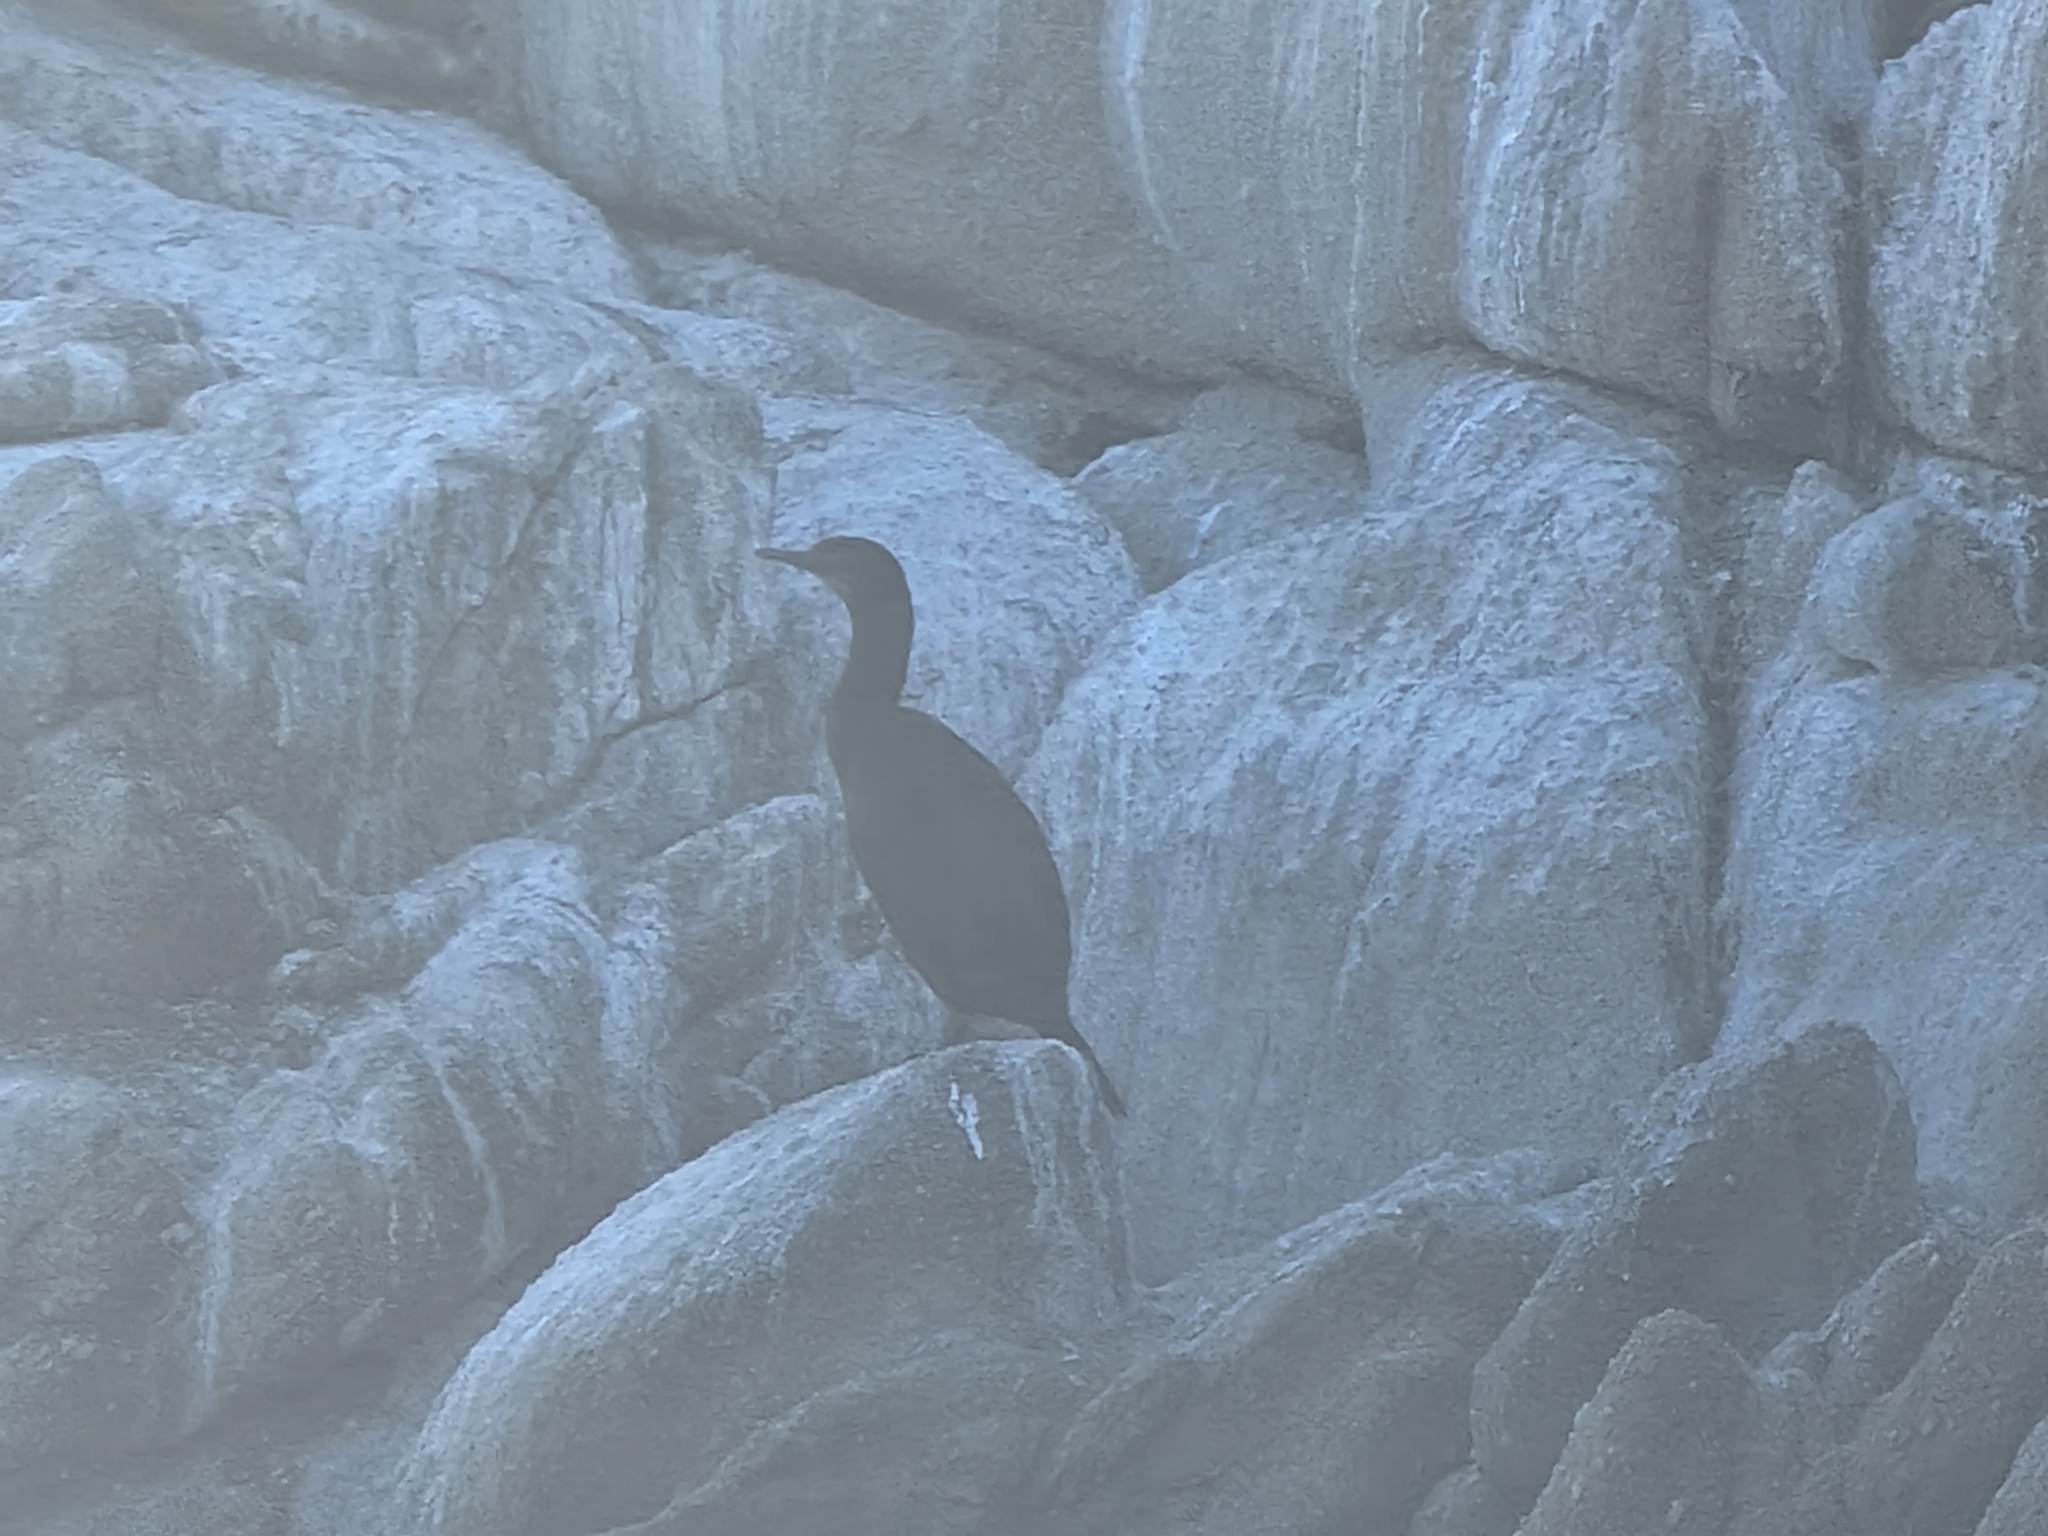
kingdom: Animalia
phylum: Chordata
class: Aves
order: Suliformes
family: Phalacrocoracidae
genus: Urile
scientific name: Urile penicillatus
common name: Brandt's cormorant
